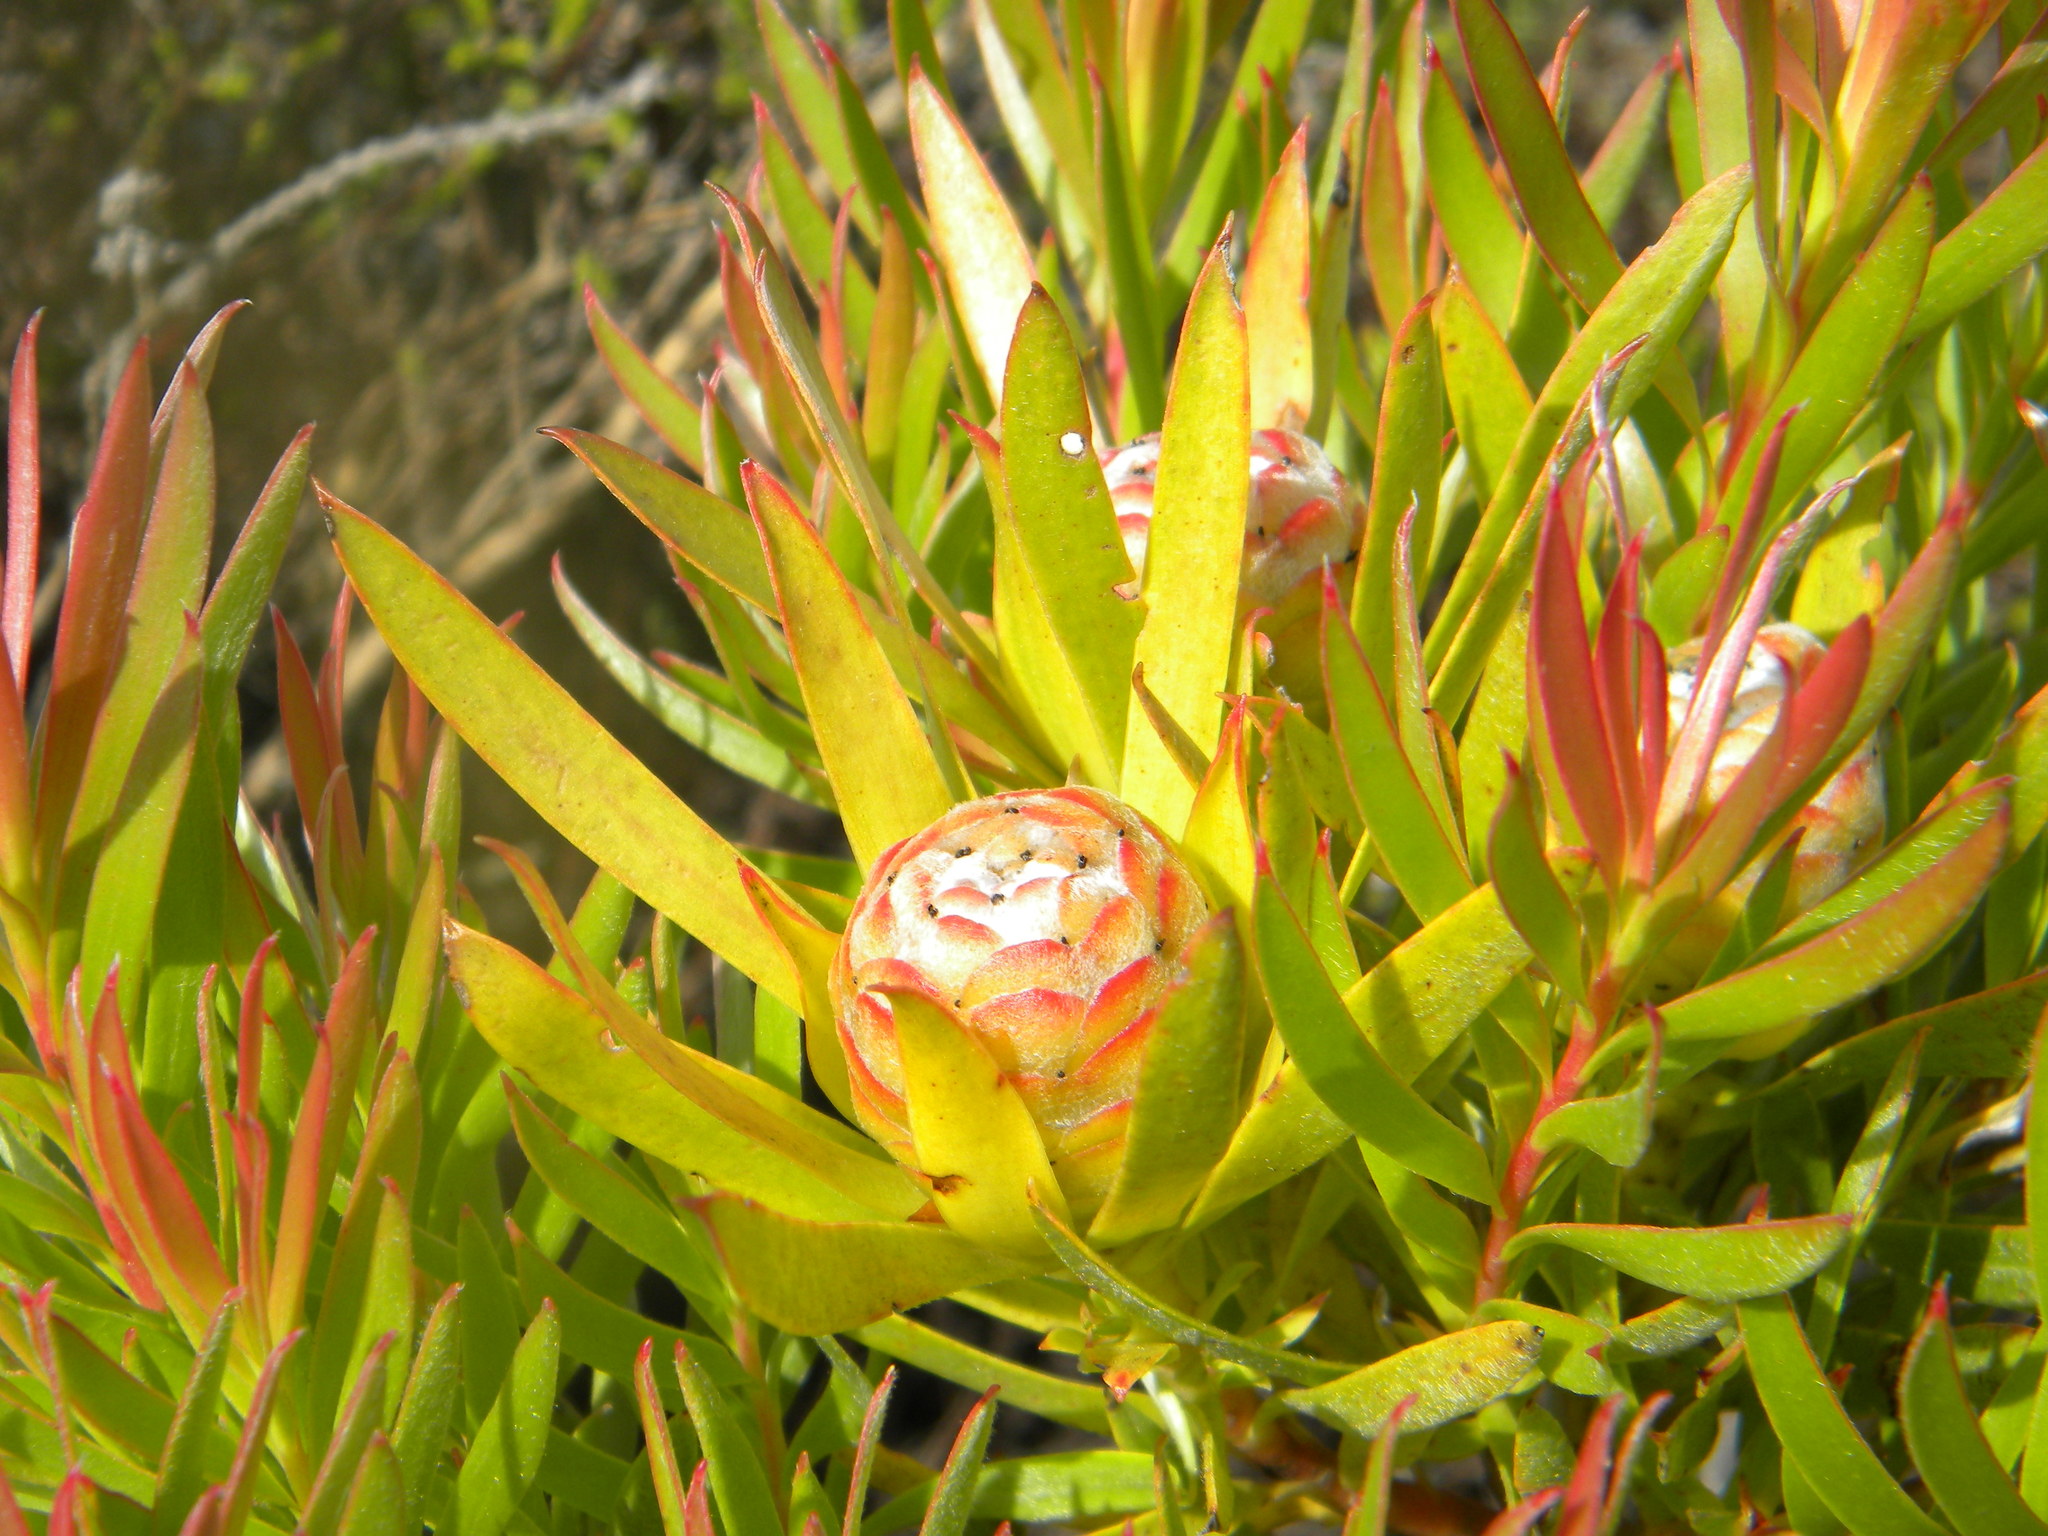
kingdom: Plantae
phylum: Tracheophyta
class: Magnoliopsida
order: Proteales
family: Proteaceae
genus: Leucadendron
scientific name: Leucadendron xanthoconus
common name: Sickle-leaf conebush
